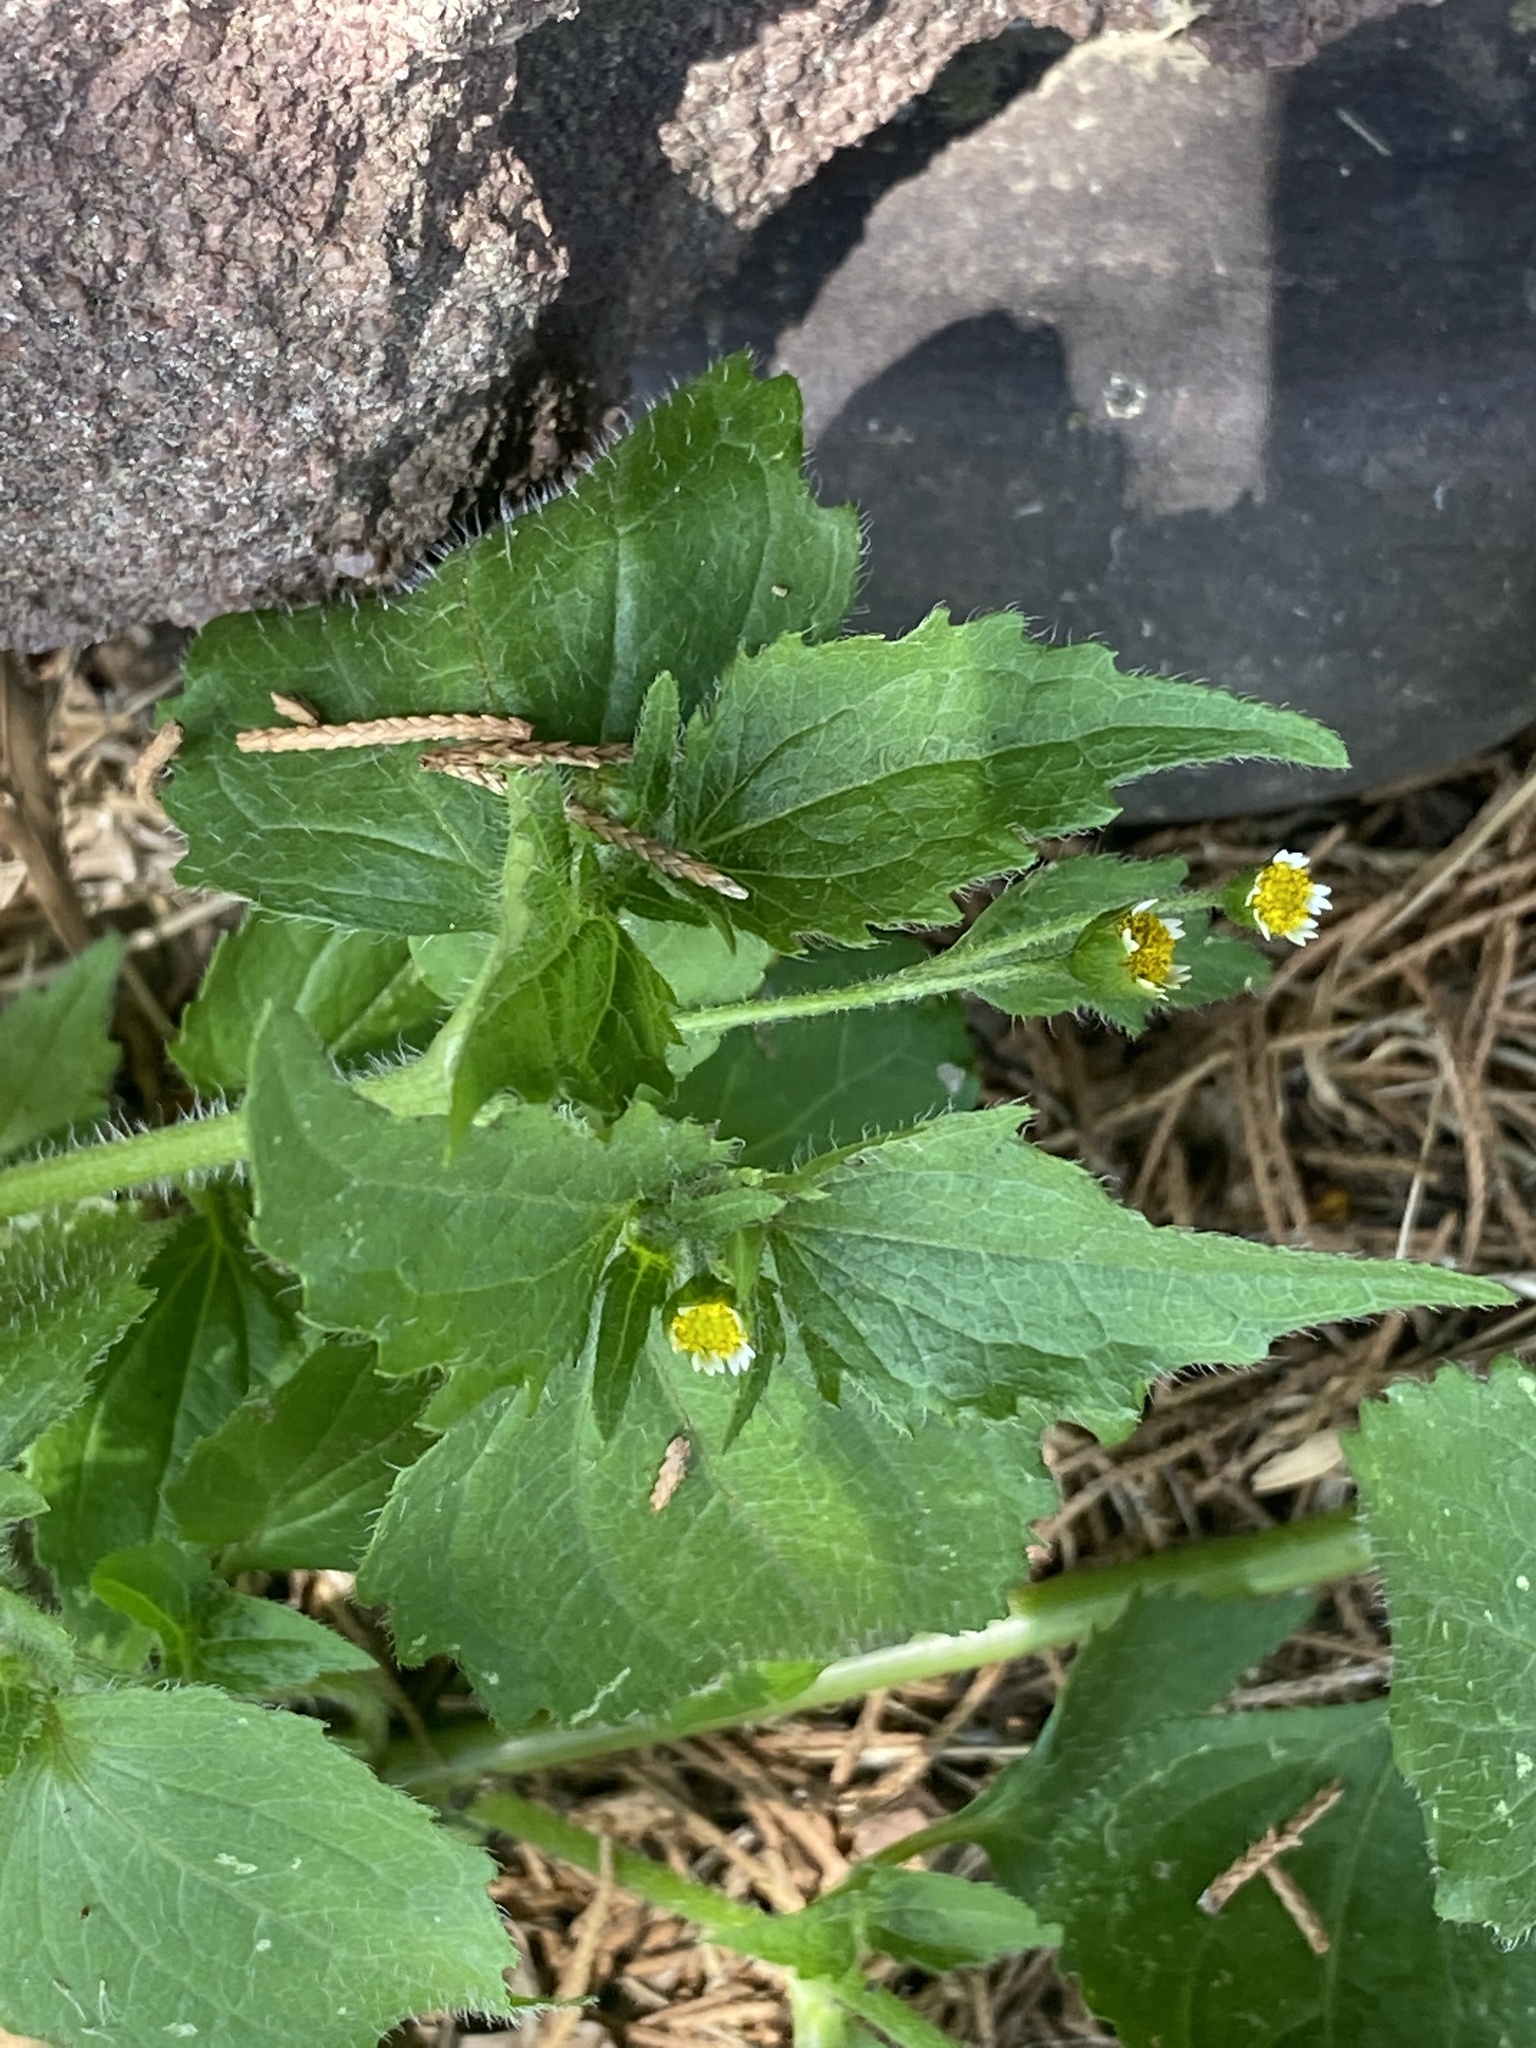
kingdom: Plantae
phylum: Tracheophyta
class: Magnoliopsida
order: Asterales
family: Asteraceae
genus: Galinsoga
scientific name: Galinsoga quadriradiata
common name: Shaggy soldier
